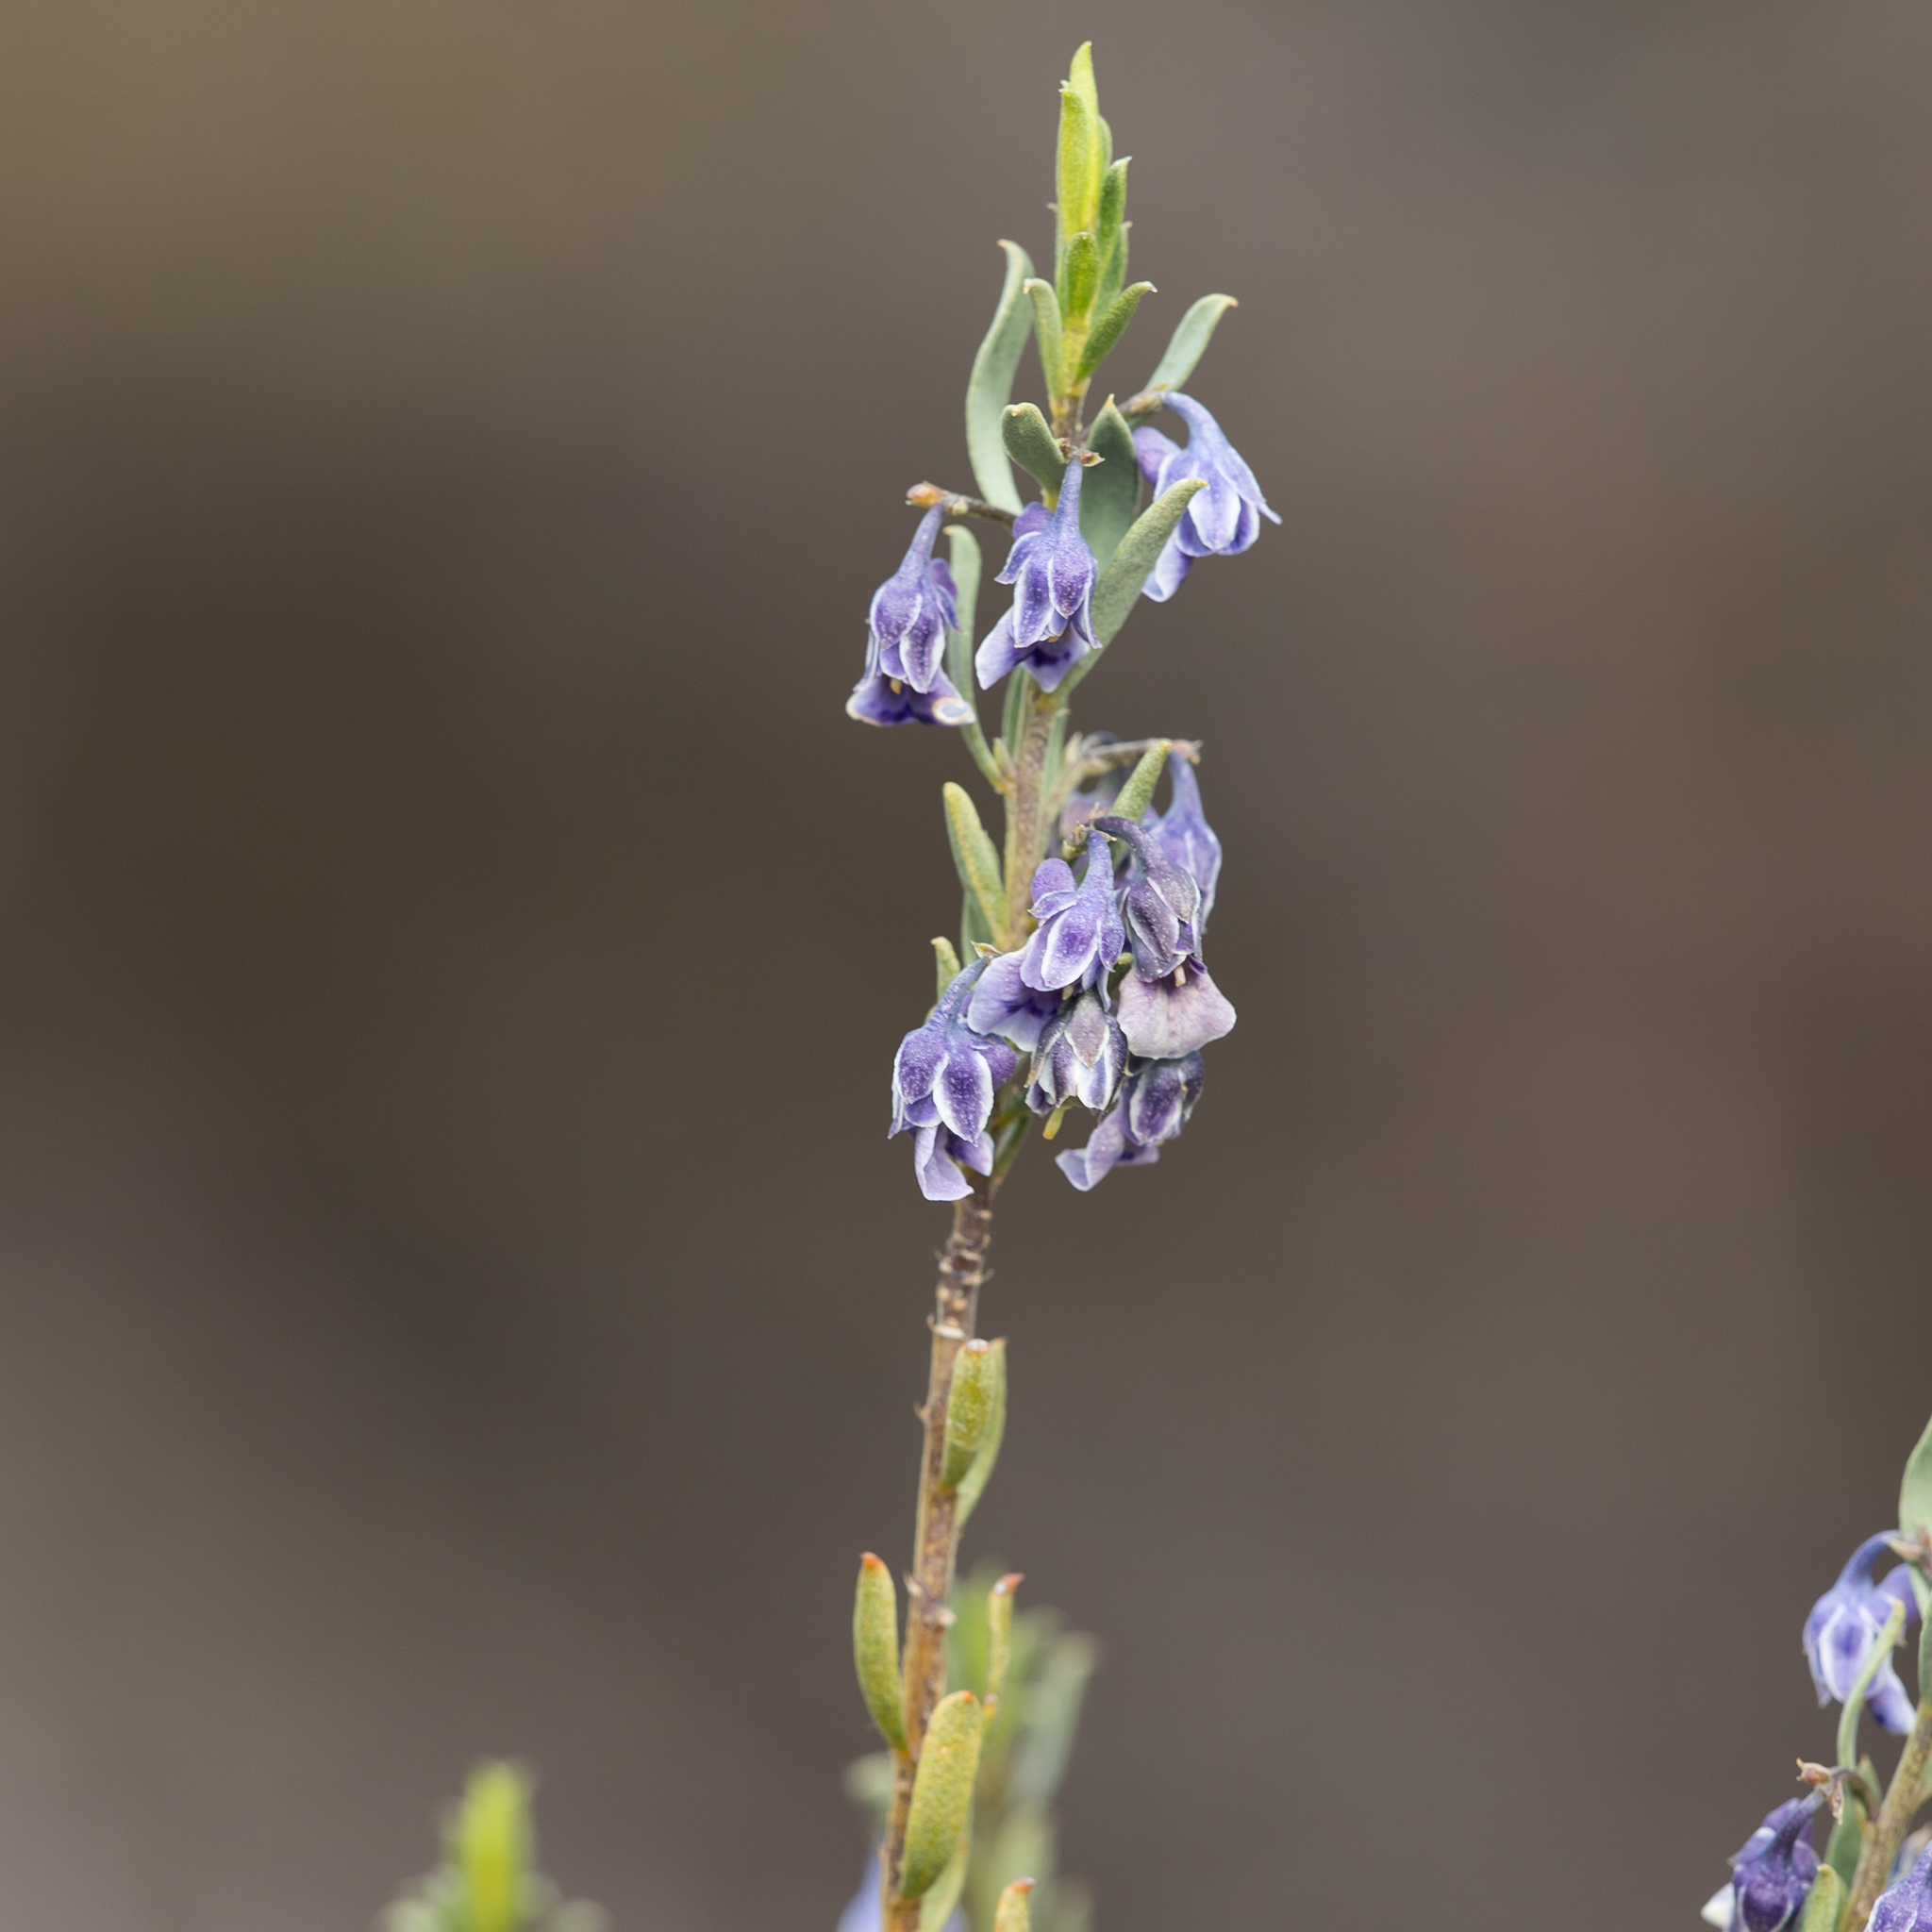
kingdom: Plantae
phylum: Tracheophyta
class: Magnoliopsida
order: Malpighiales
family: Violaceae
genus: Pigea
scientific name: Pigea floribunda
